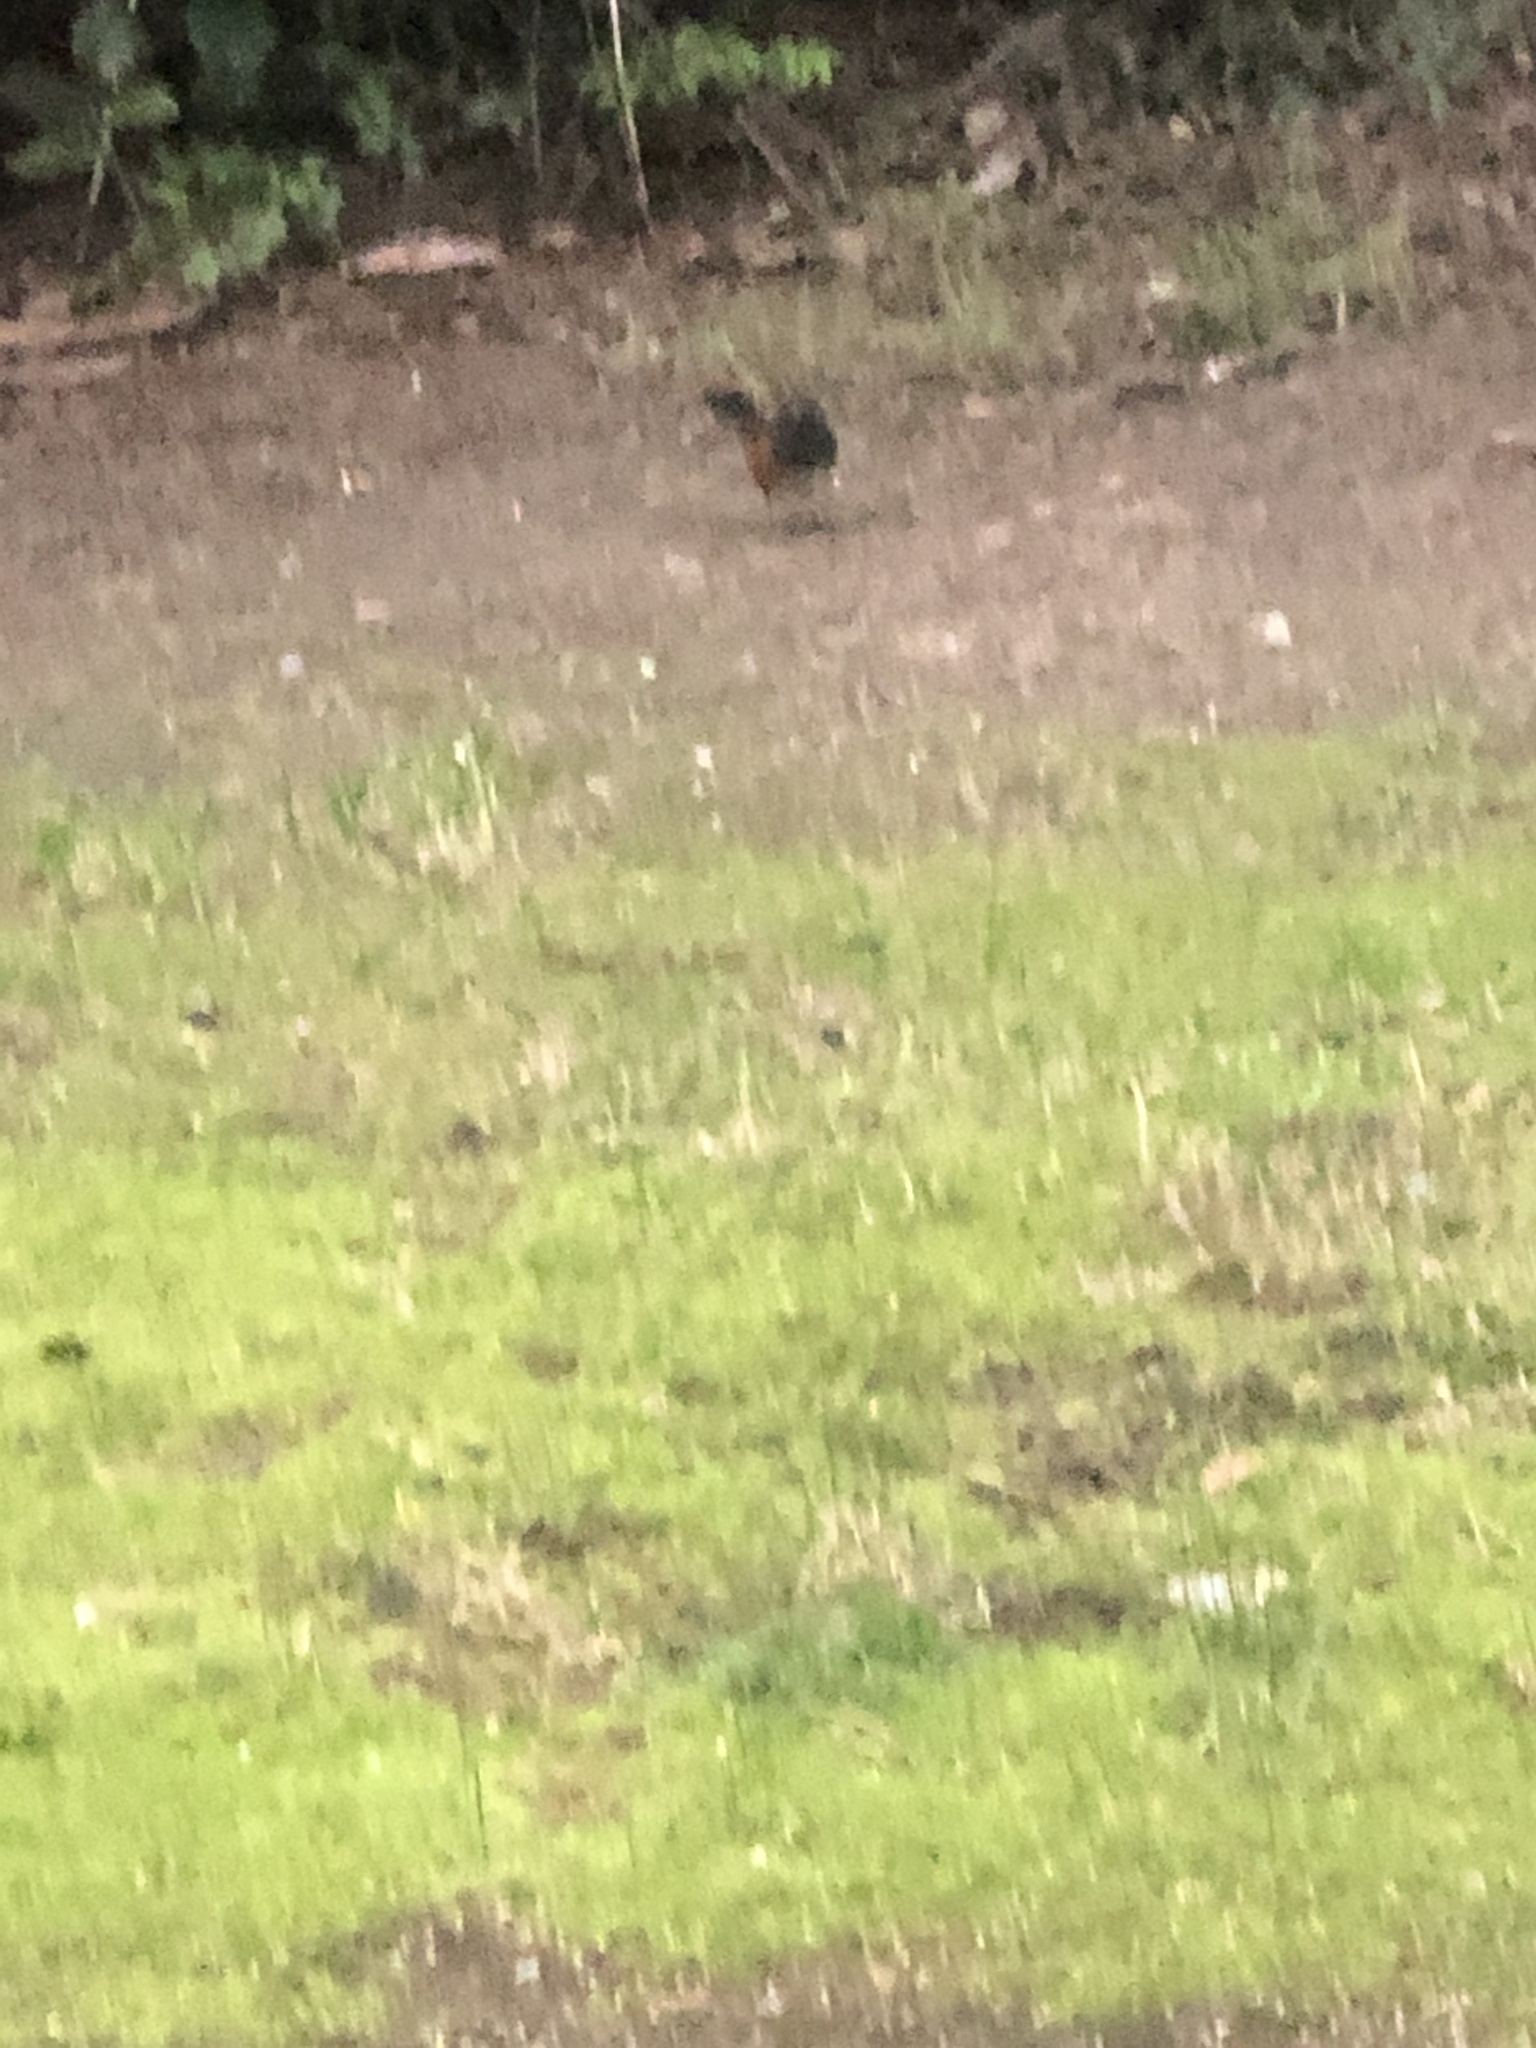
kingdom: Animalia
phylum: Chordata
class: Aves
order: Passeriformes
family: Passerellidae
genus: Pipilo
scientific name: Pipilo maculatus
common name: Spotted towhee
